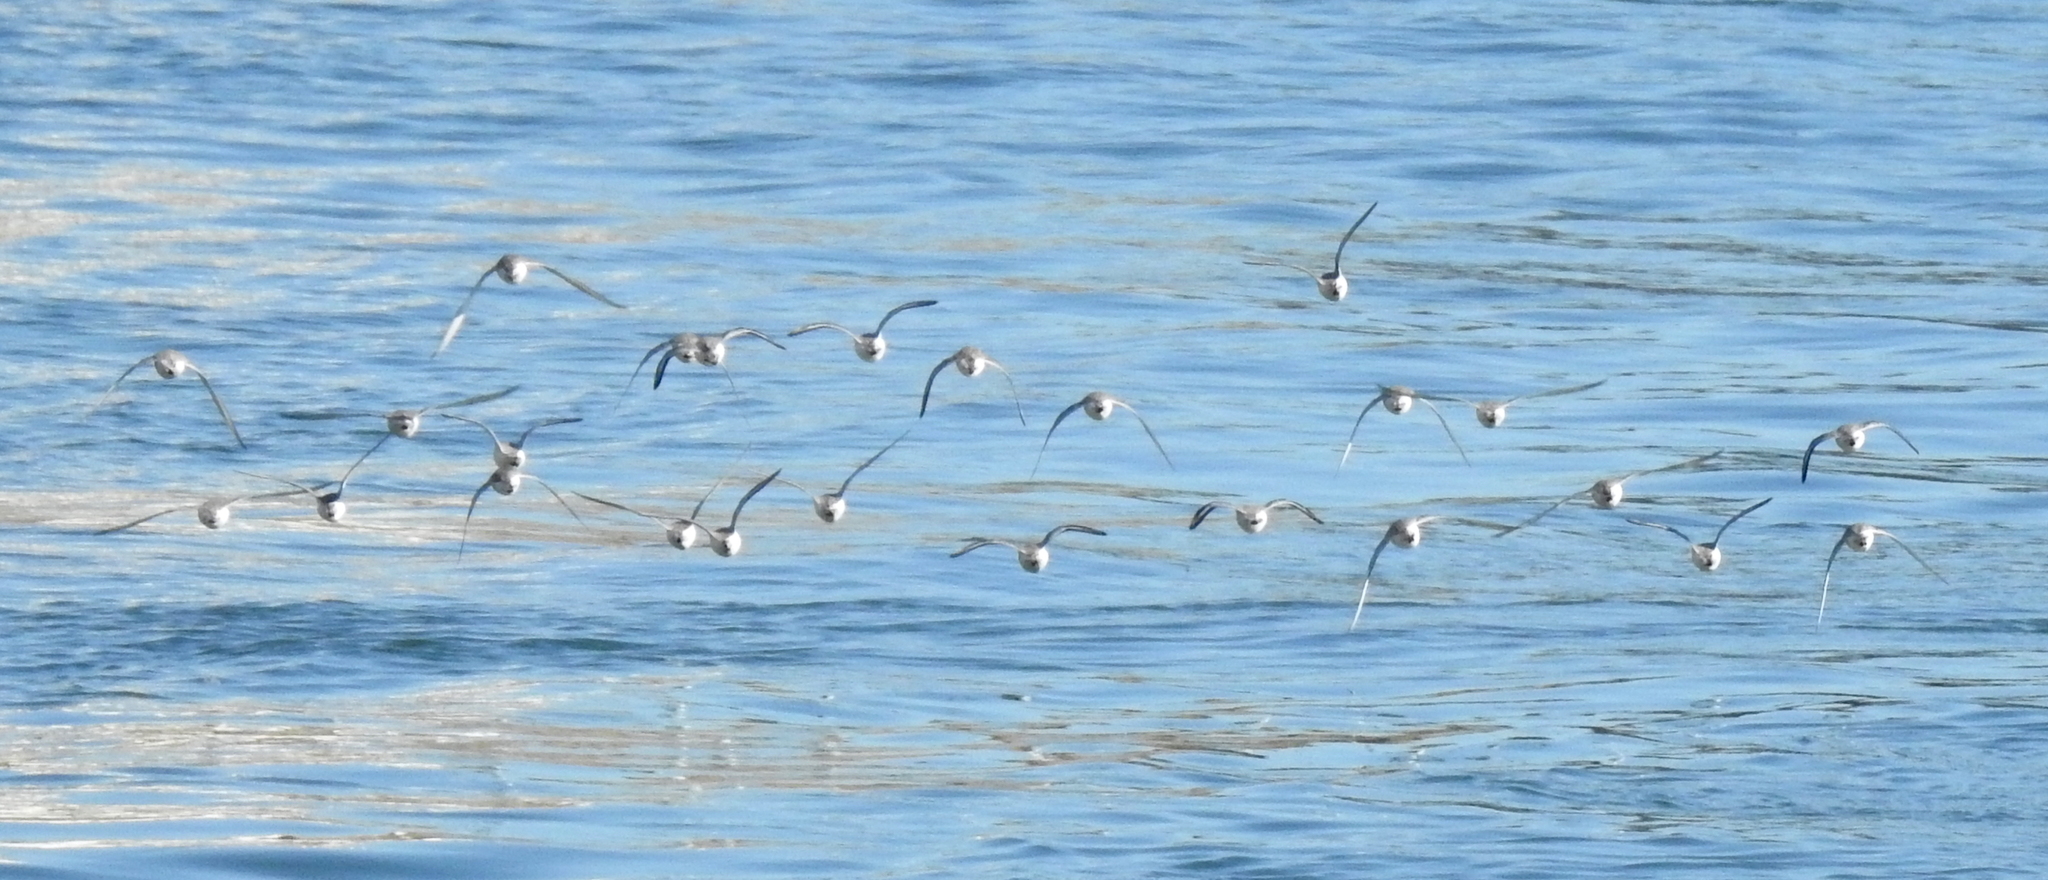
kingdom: Animalia
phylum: Chordata
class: Aves
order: Charadriiformes
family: Scolopacidae
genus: Calidris
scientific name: Calidris alba
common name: Sanderling
